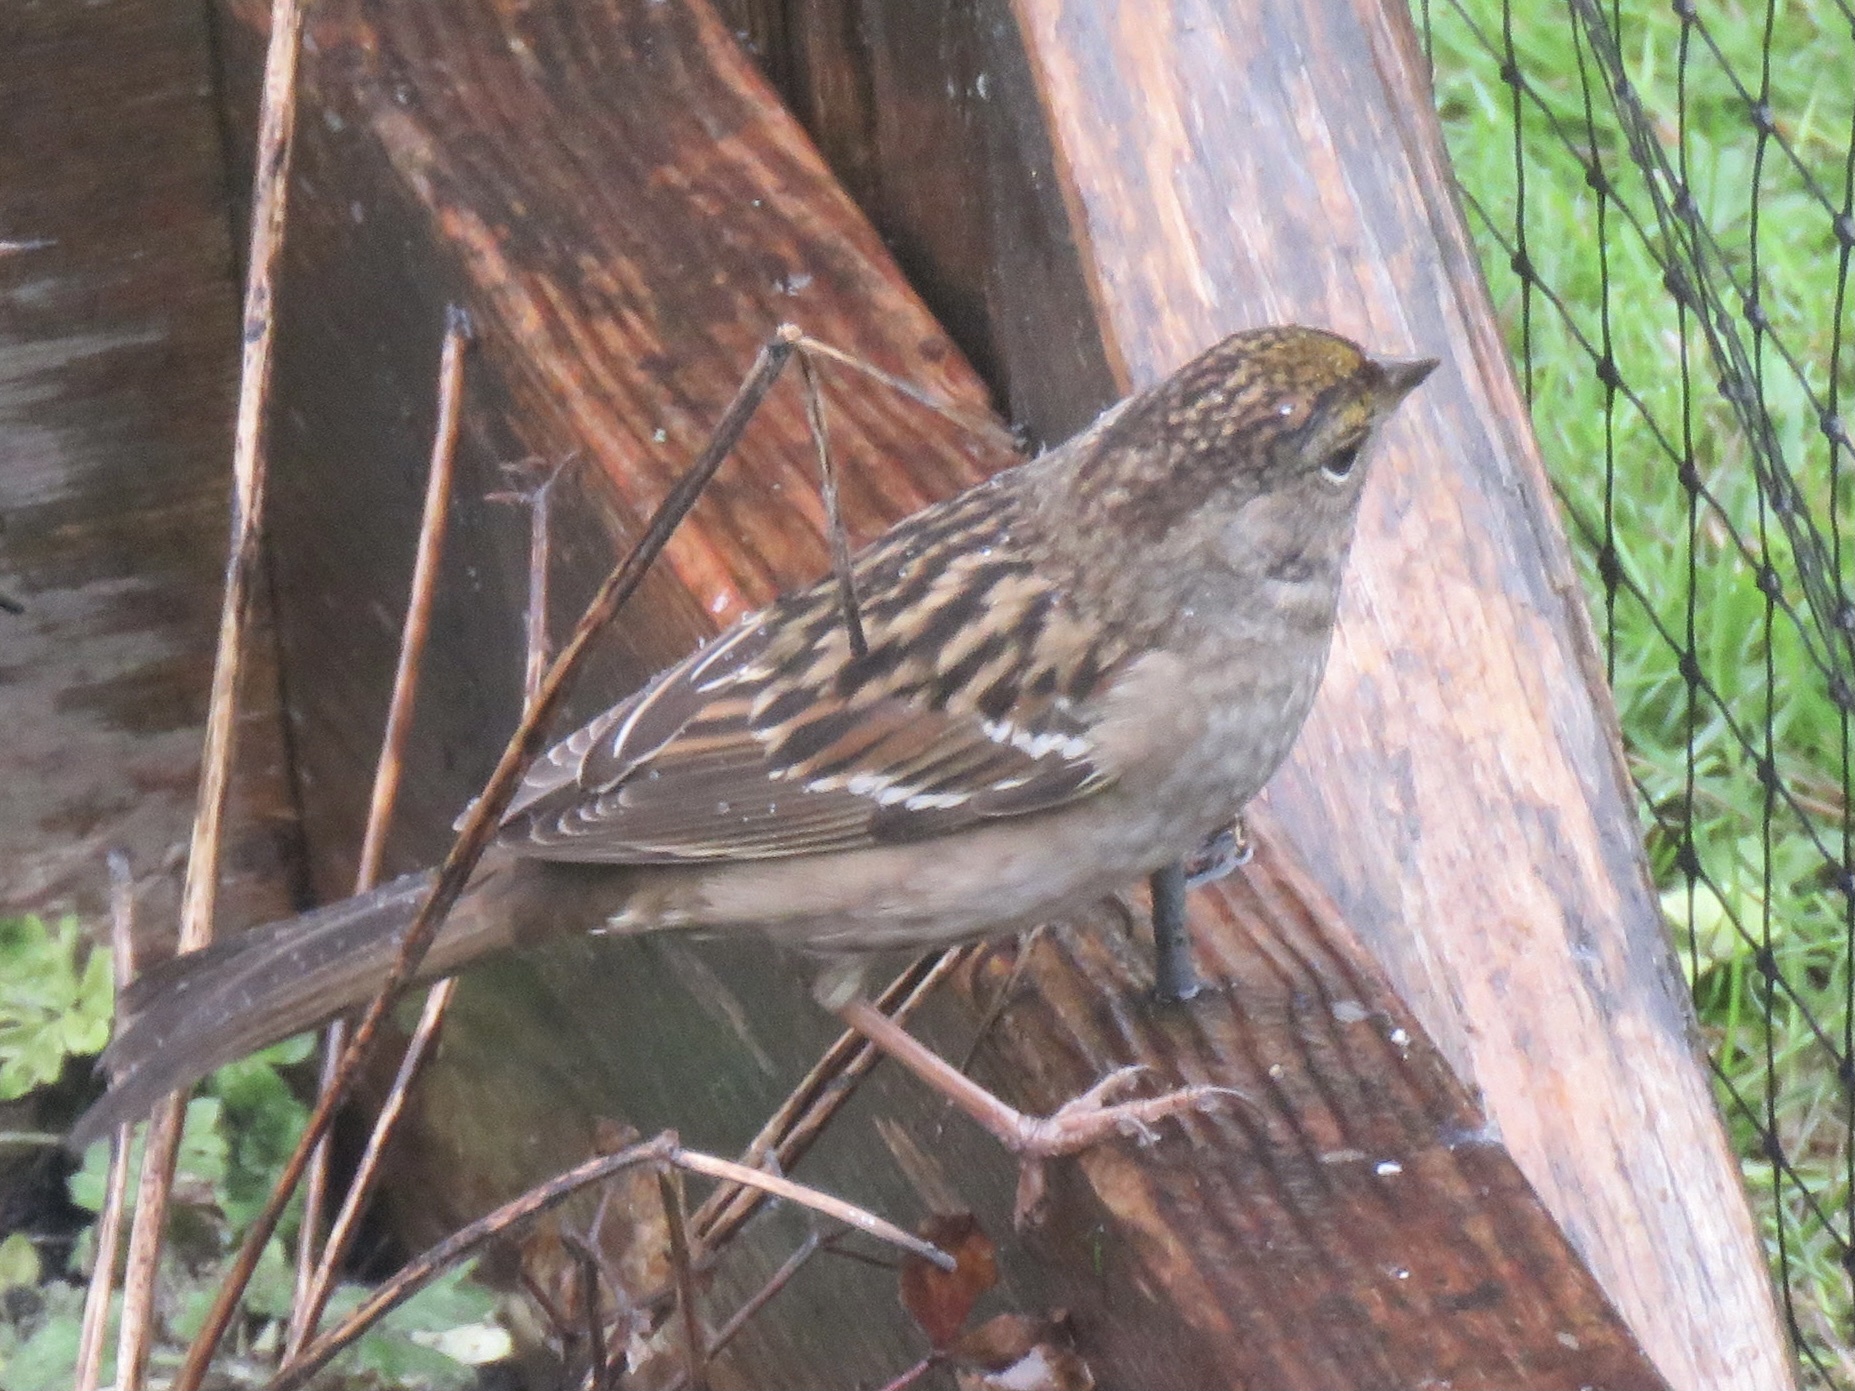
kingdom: Animalia
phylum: Chordata
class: Aves
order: Passeriformes
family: Passerellidae
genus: Zonotrichia
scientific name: Zonotrichia atricapilla
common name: Golden-crowned sparrow
